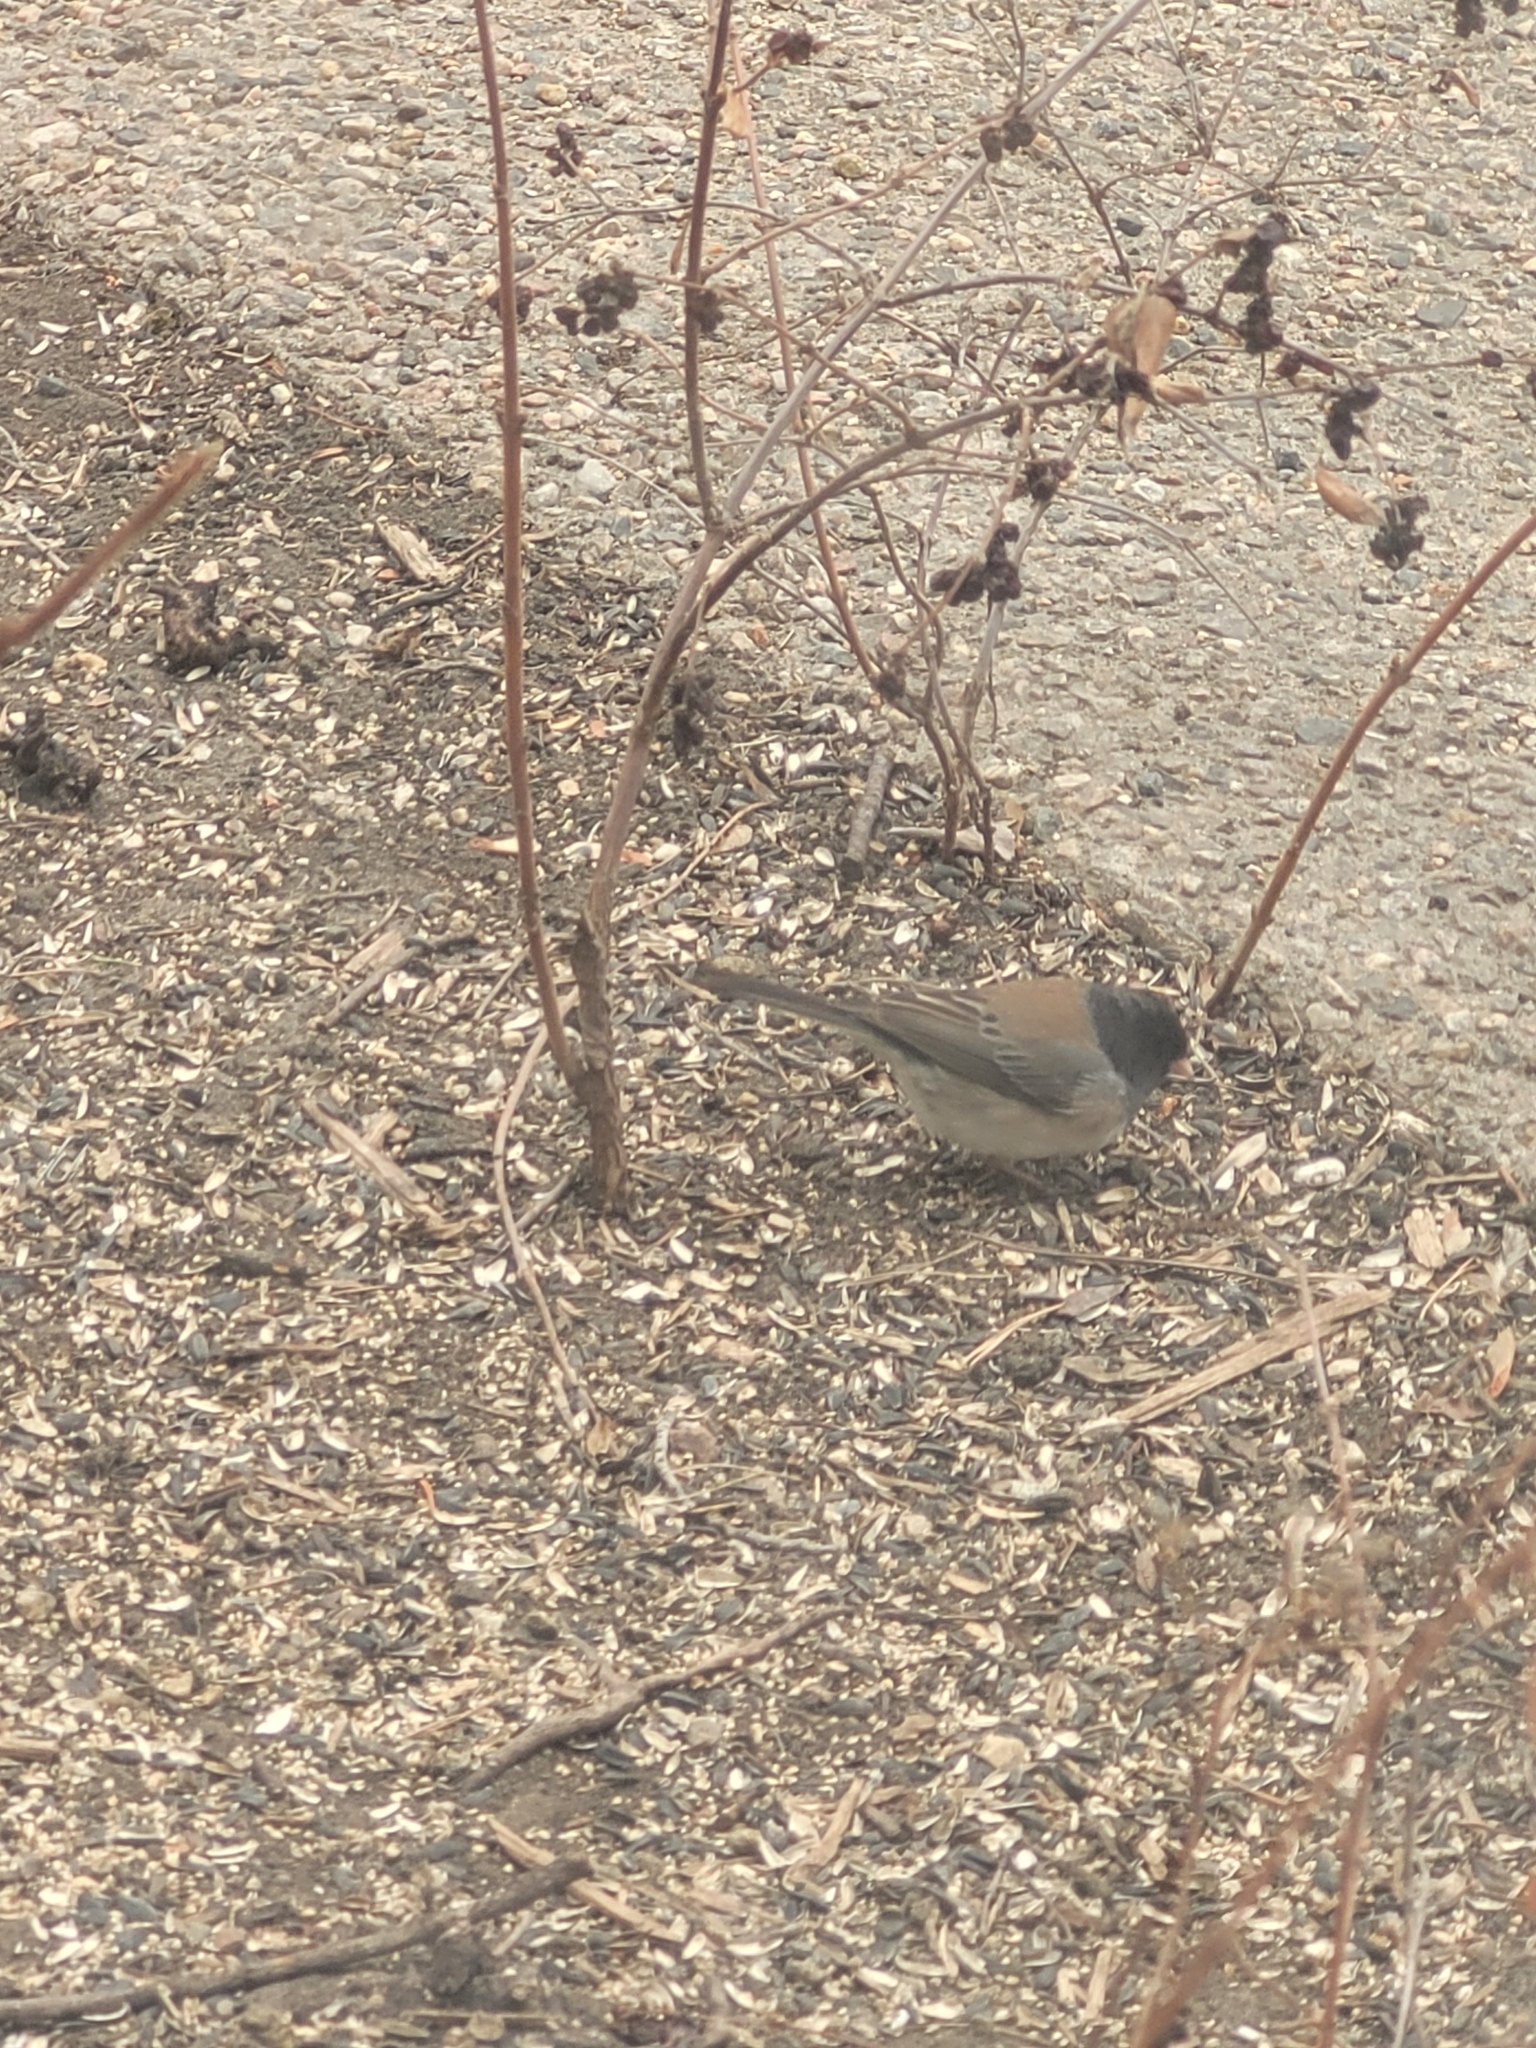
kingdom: Animalia
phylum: Chordata
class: Aves
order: Passeriformes
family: Passerellidae
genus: Junco
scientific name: Junco hyemalis
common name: Dark-eyed junco
